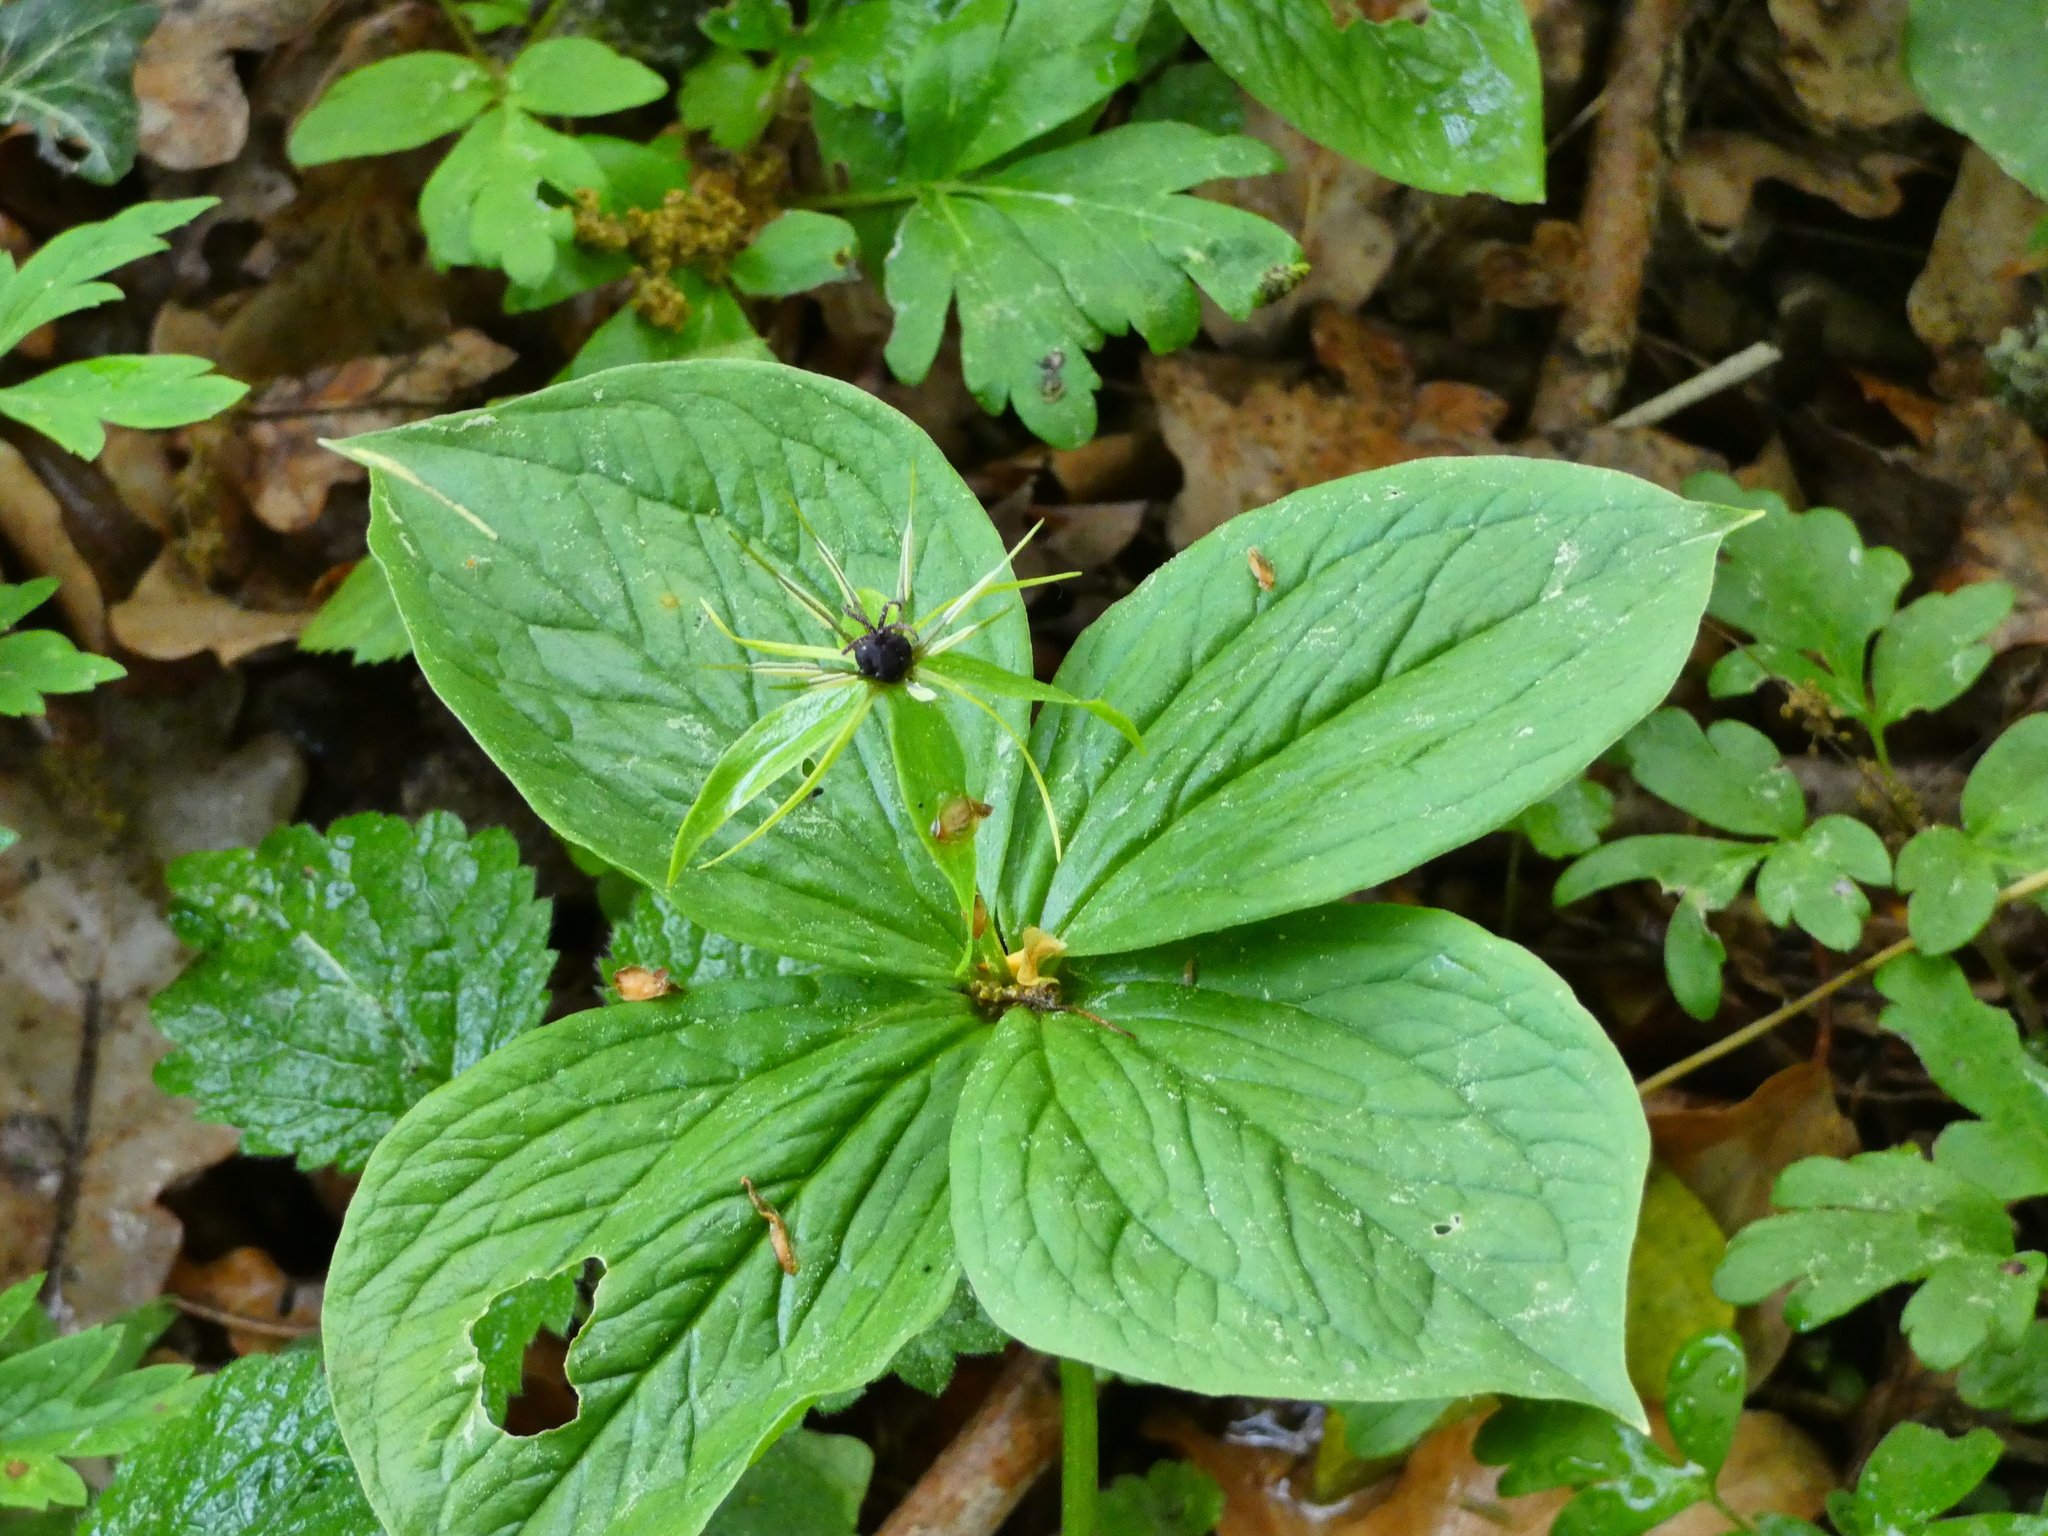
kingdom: Plantae
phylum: Tracheophyta
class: Liliopsida
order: Liliales
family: Melanthiaceae
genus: Paris
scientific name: Paris quadrifolia
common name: Herb-paris
